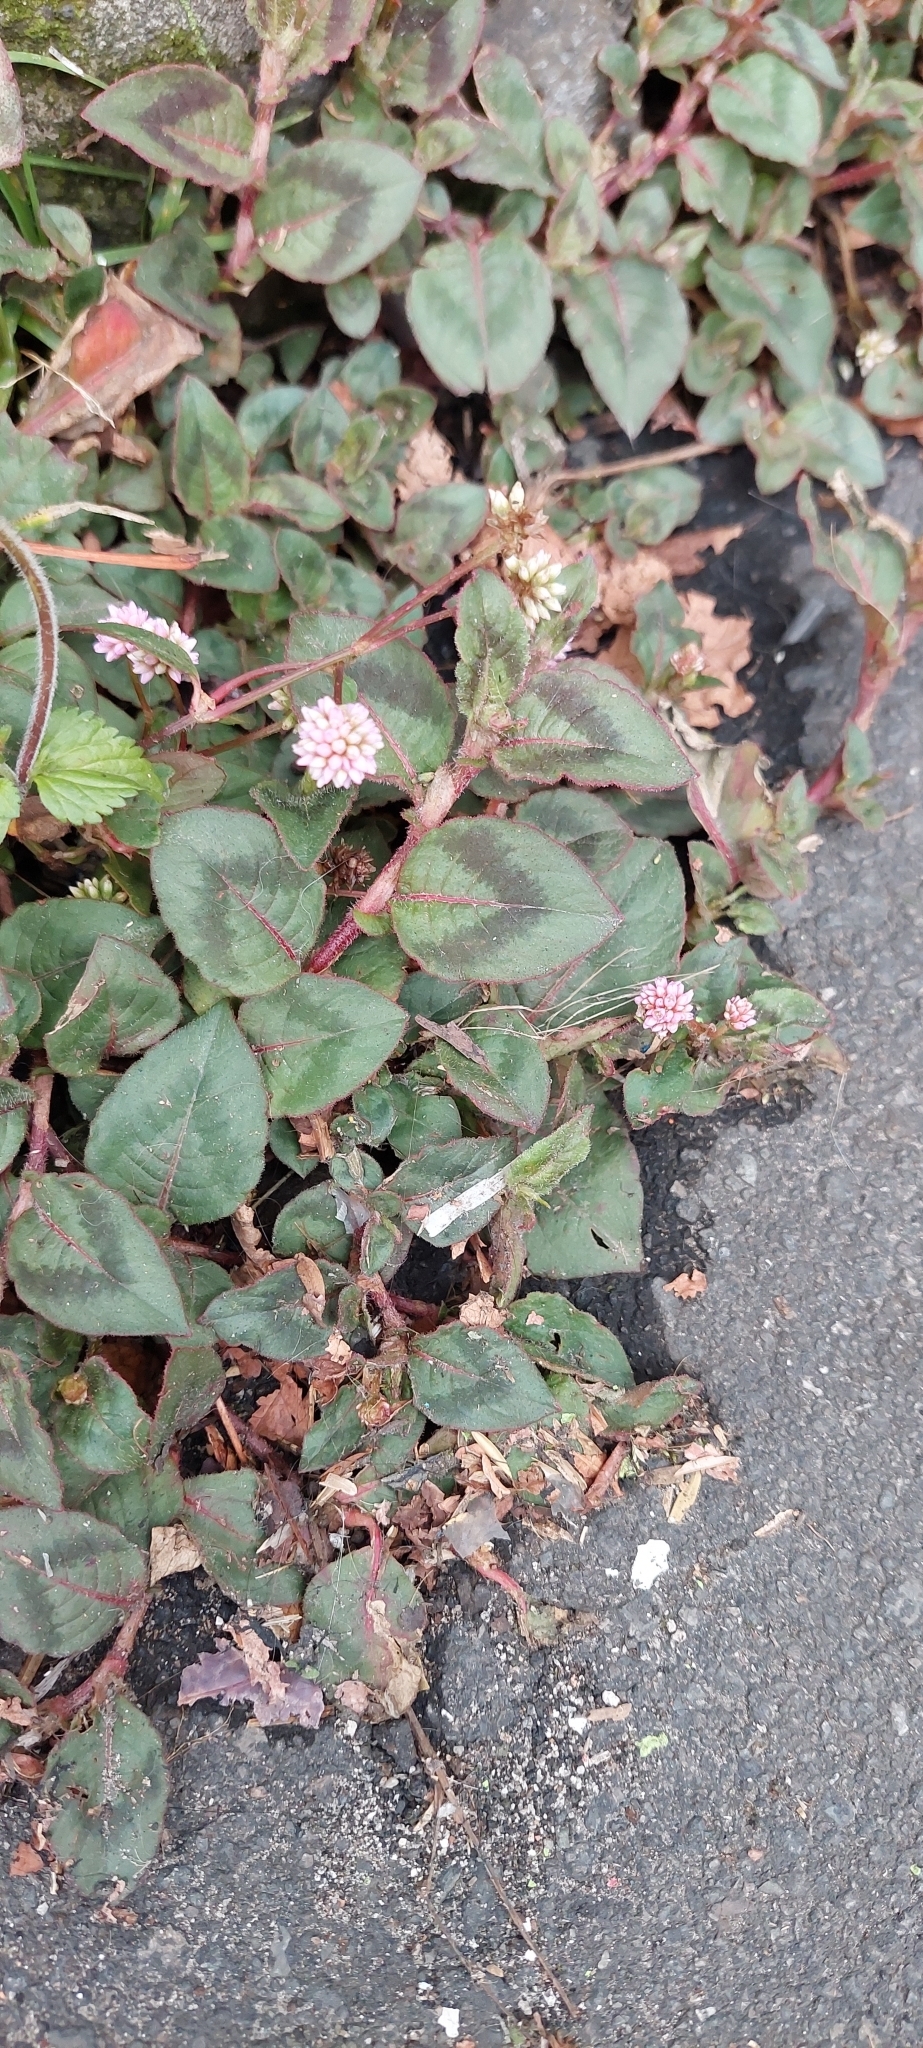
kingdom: Plantae
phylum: Tracheophyta
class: Magnoliopsida
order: Caryophyllales
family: Polygonaceae
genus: Persicaria
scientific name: Persicaria capitata
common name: Pinkhead smartweed
